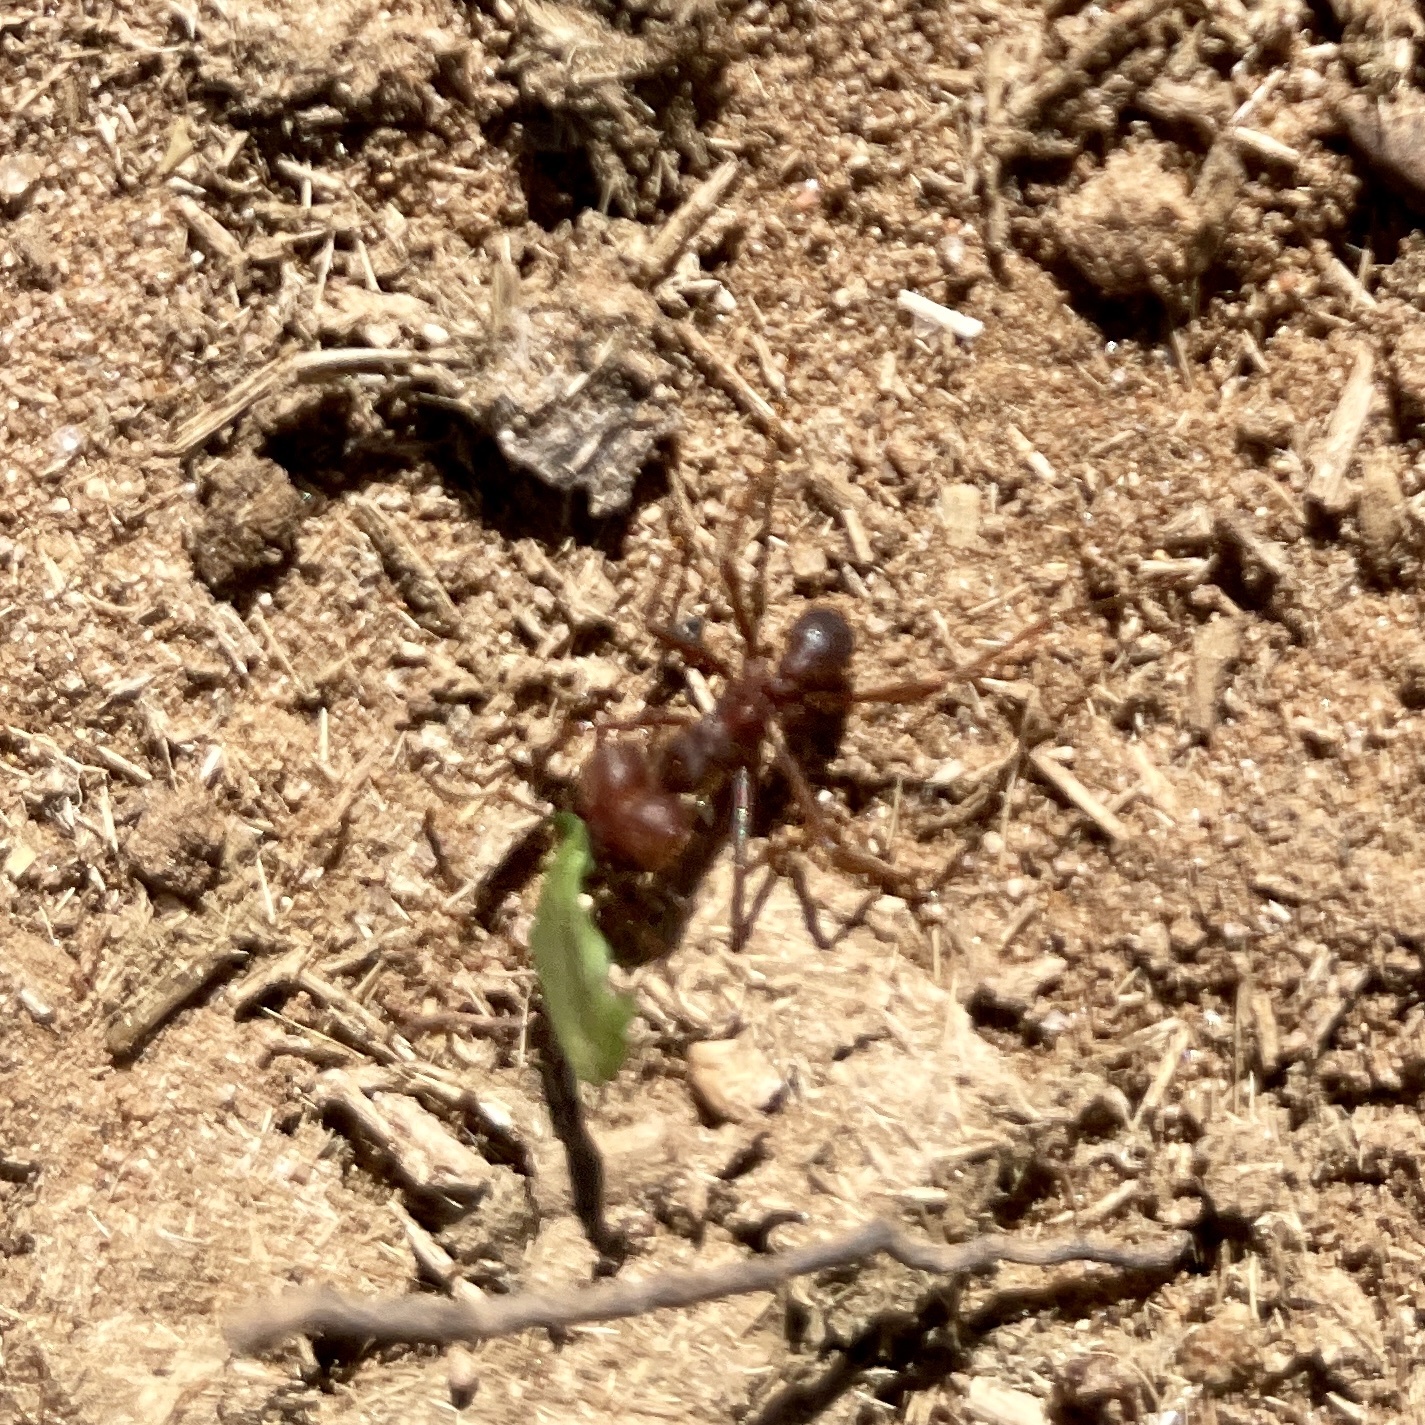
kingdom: Animalia
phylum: Arthropoda
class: Insecta
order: Hymenoptera
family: Formicidae
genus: Atta
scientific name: Atta texana
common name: Texas leafcutting ant
